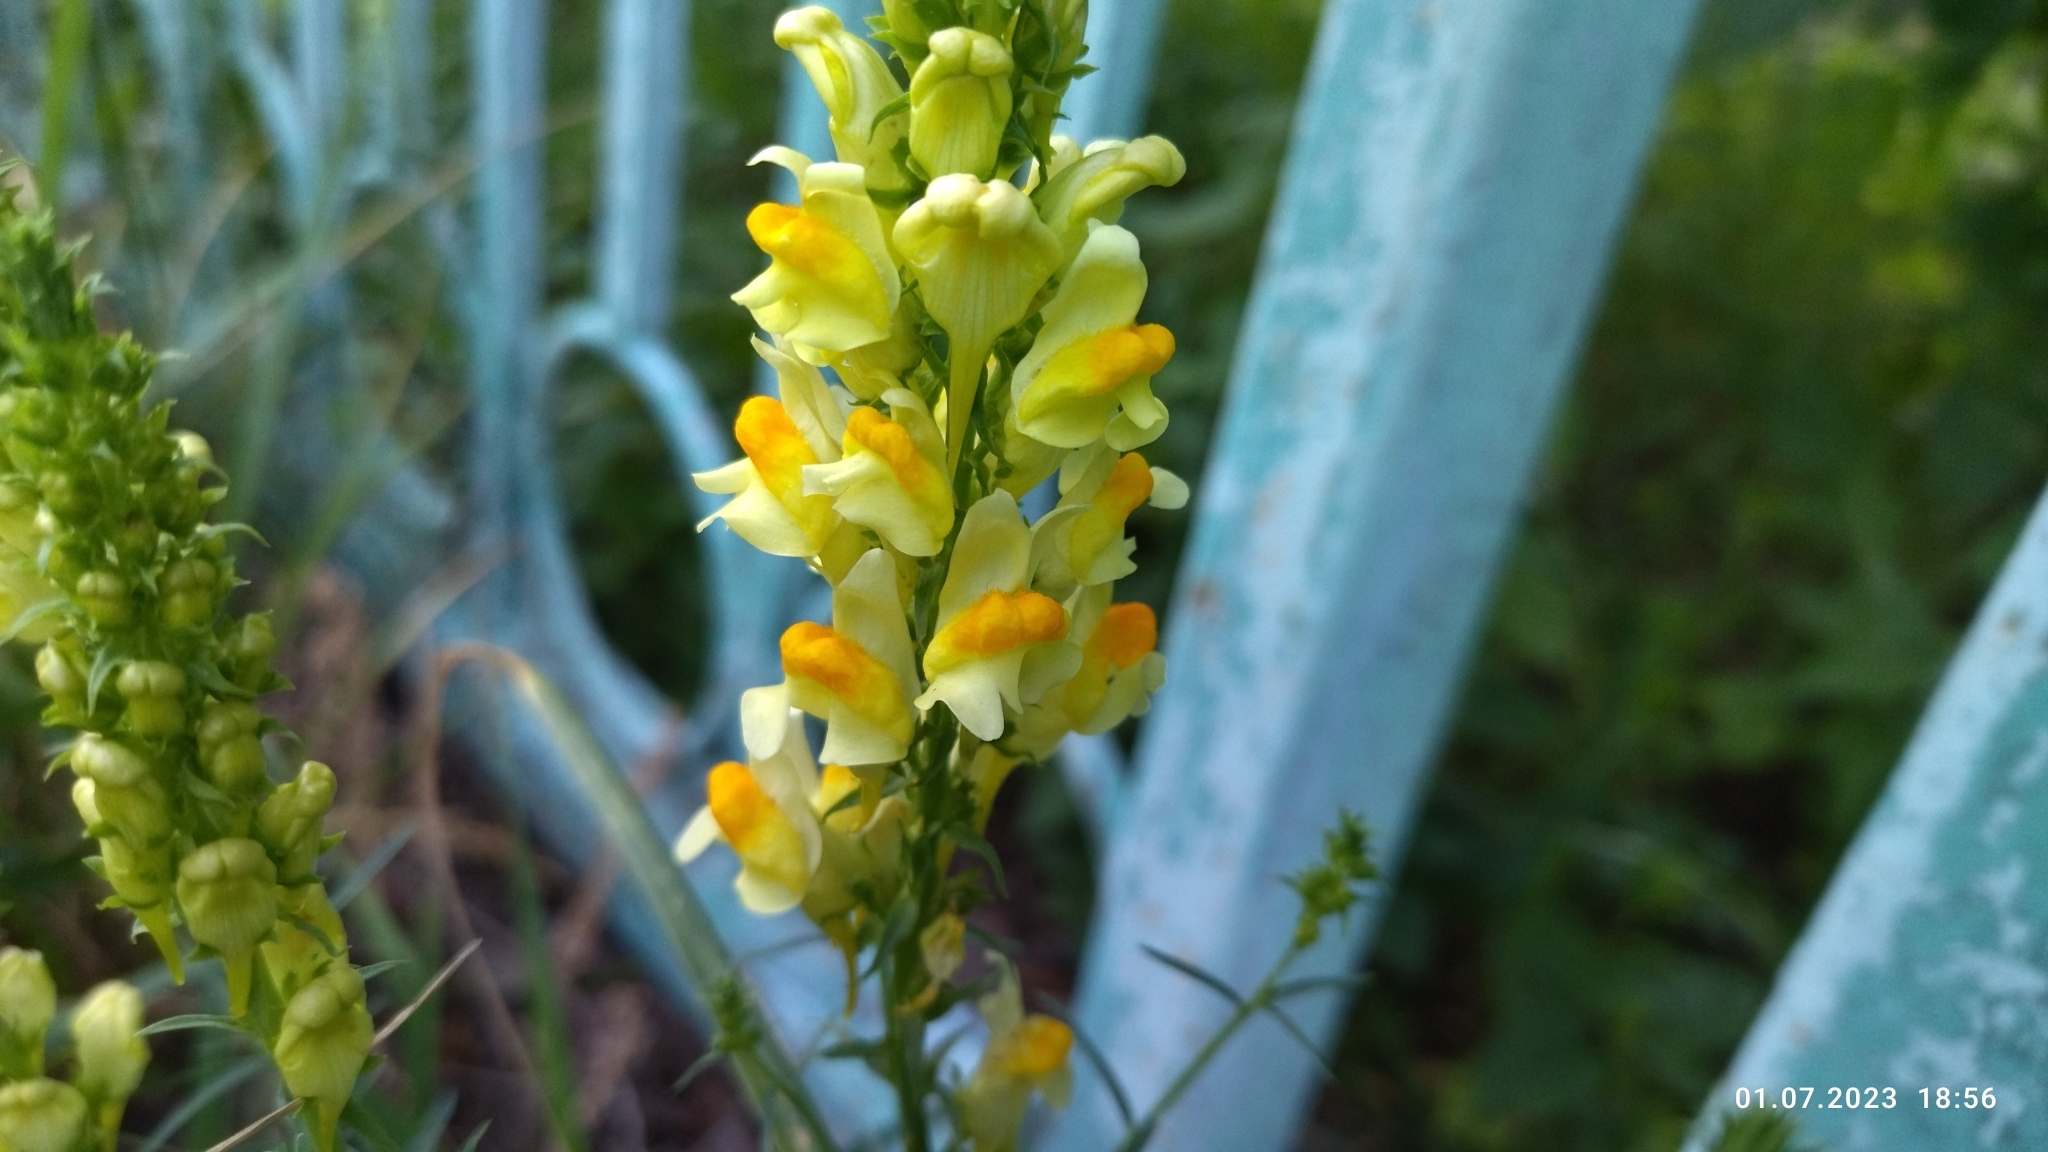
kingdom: Plantae
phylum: Tracheophyta
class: Magnoliopsida
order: Lamiales
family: Plantaginaceae
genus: Linaria
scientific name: Linaria vulgaris
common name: Butter and eggs
